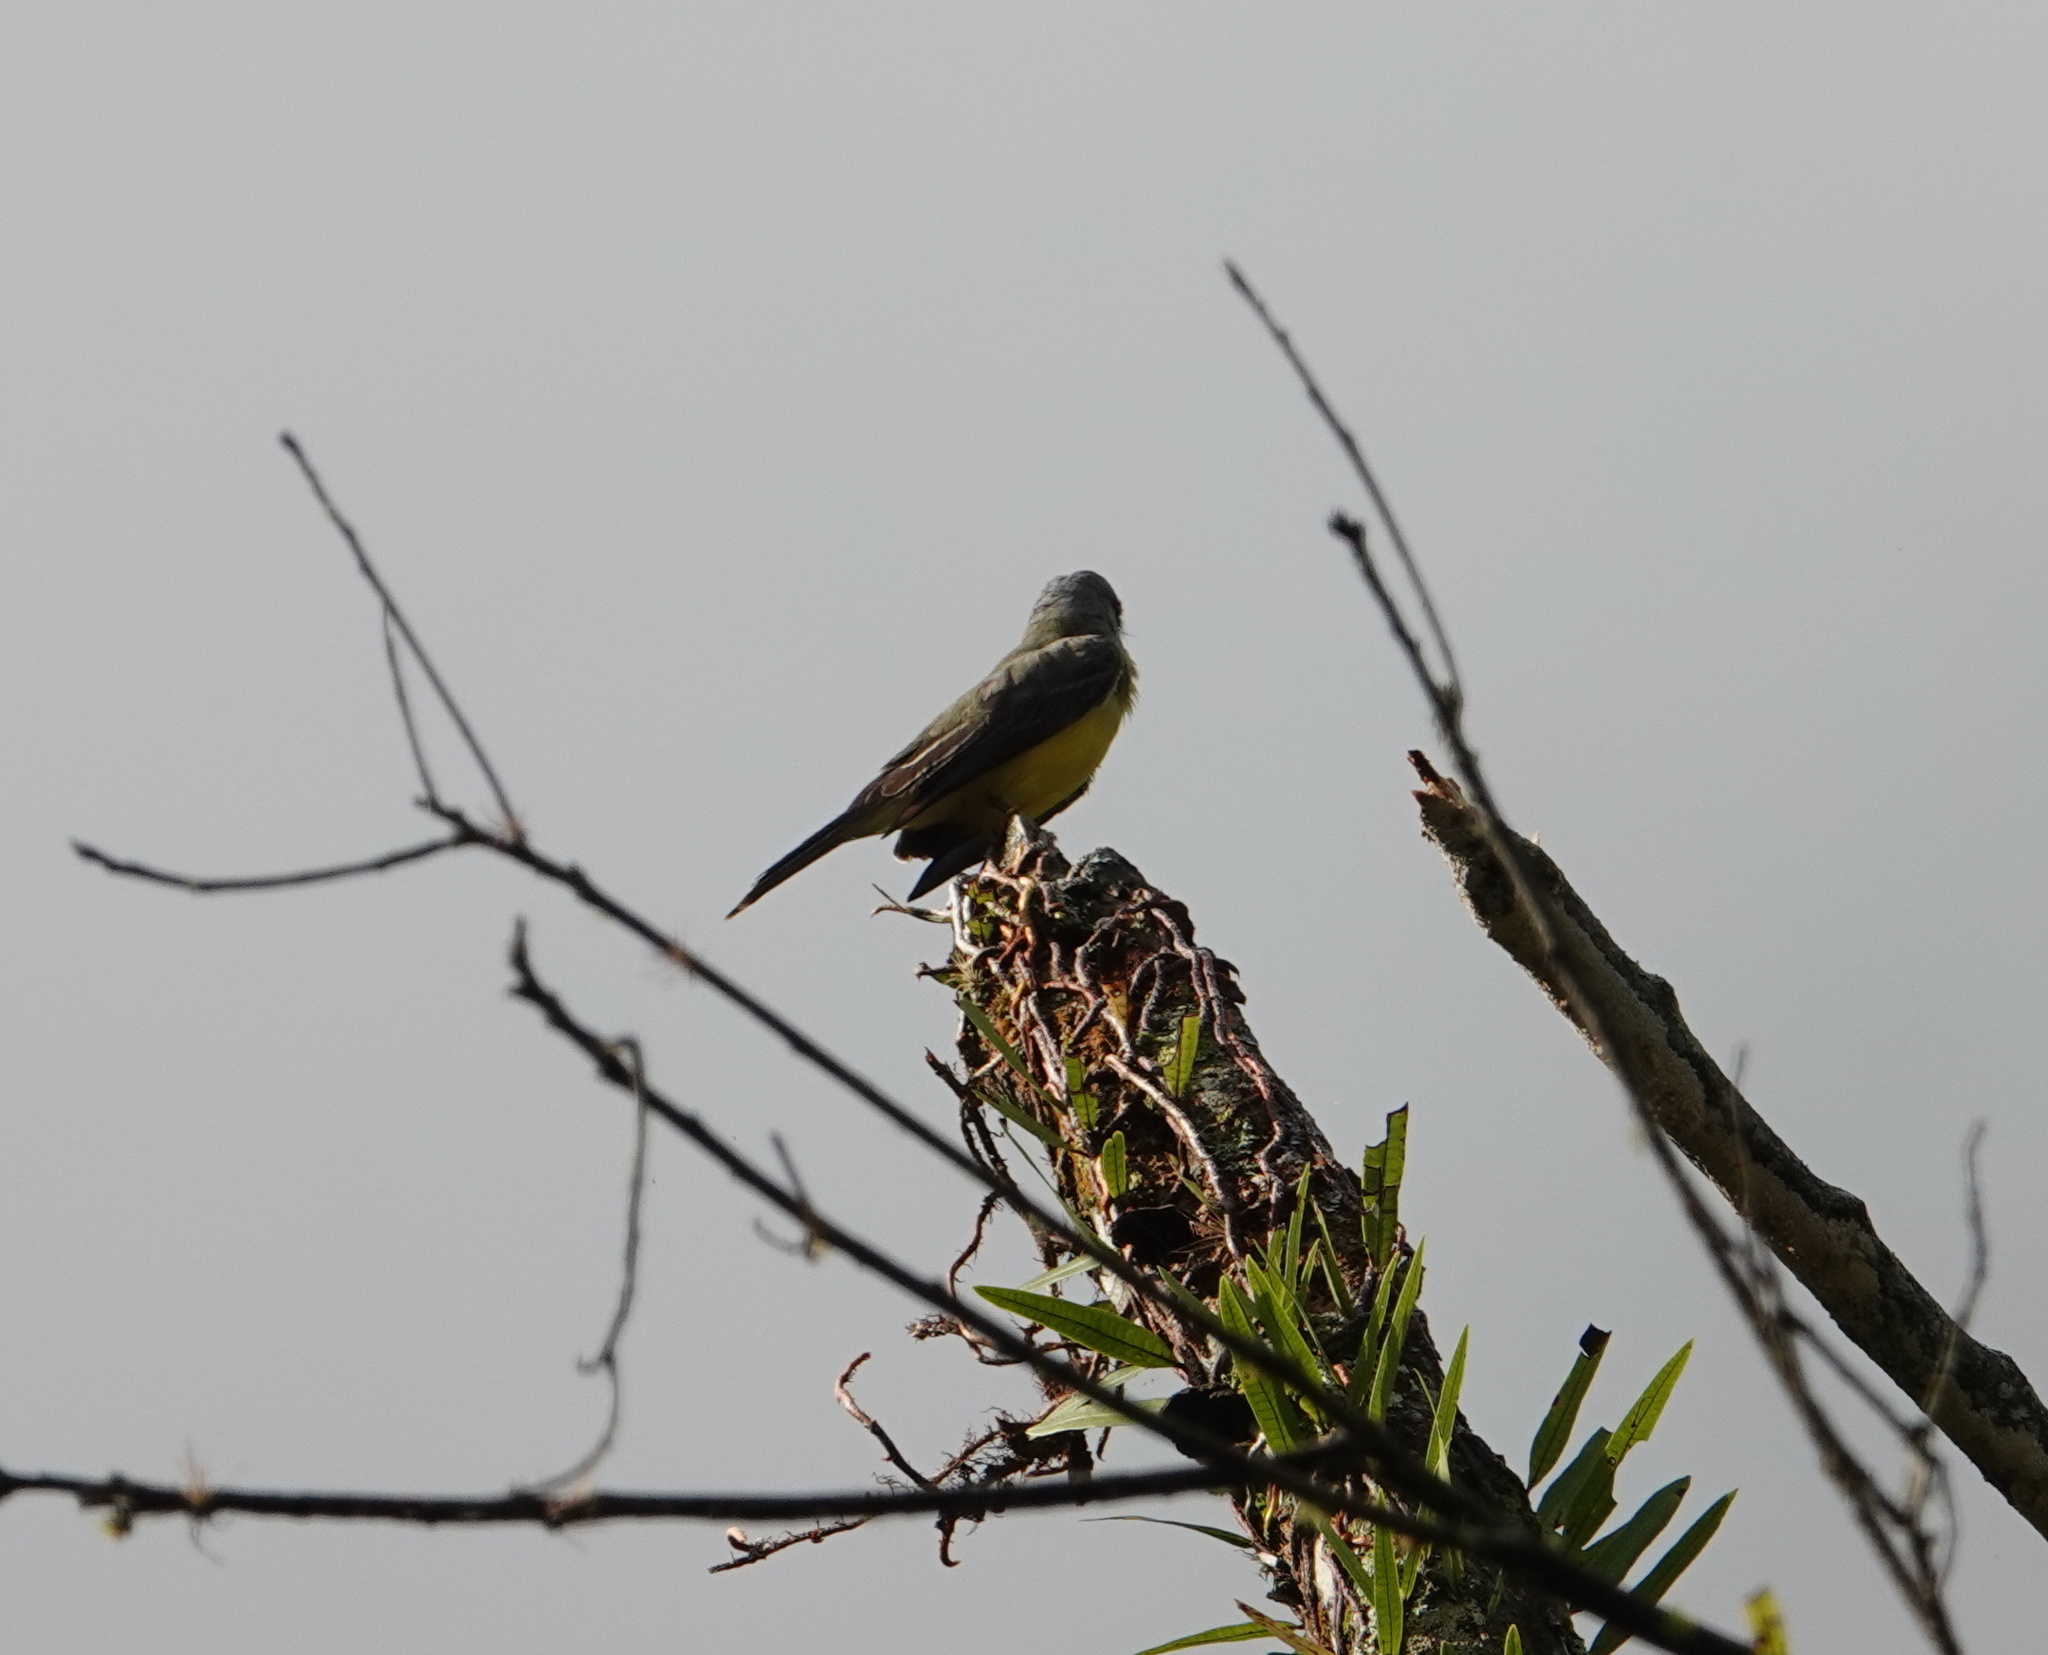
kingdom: Animalia
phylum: Chordata
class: Aves
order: Passeriformes
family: Tyrannidae
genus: Tyrannus
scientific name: Tyrannus melancholicus
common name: Tropical kingbird
